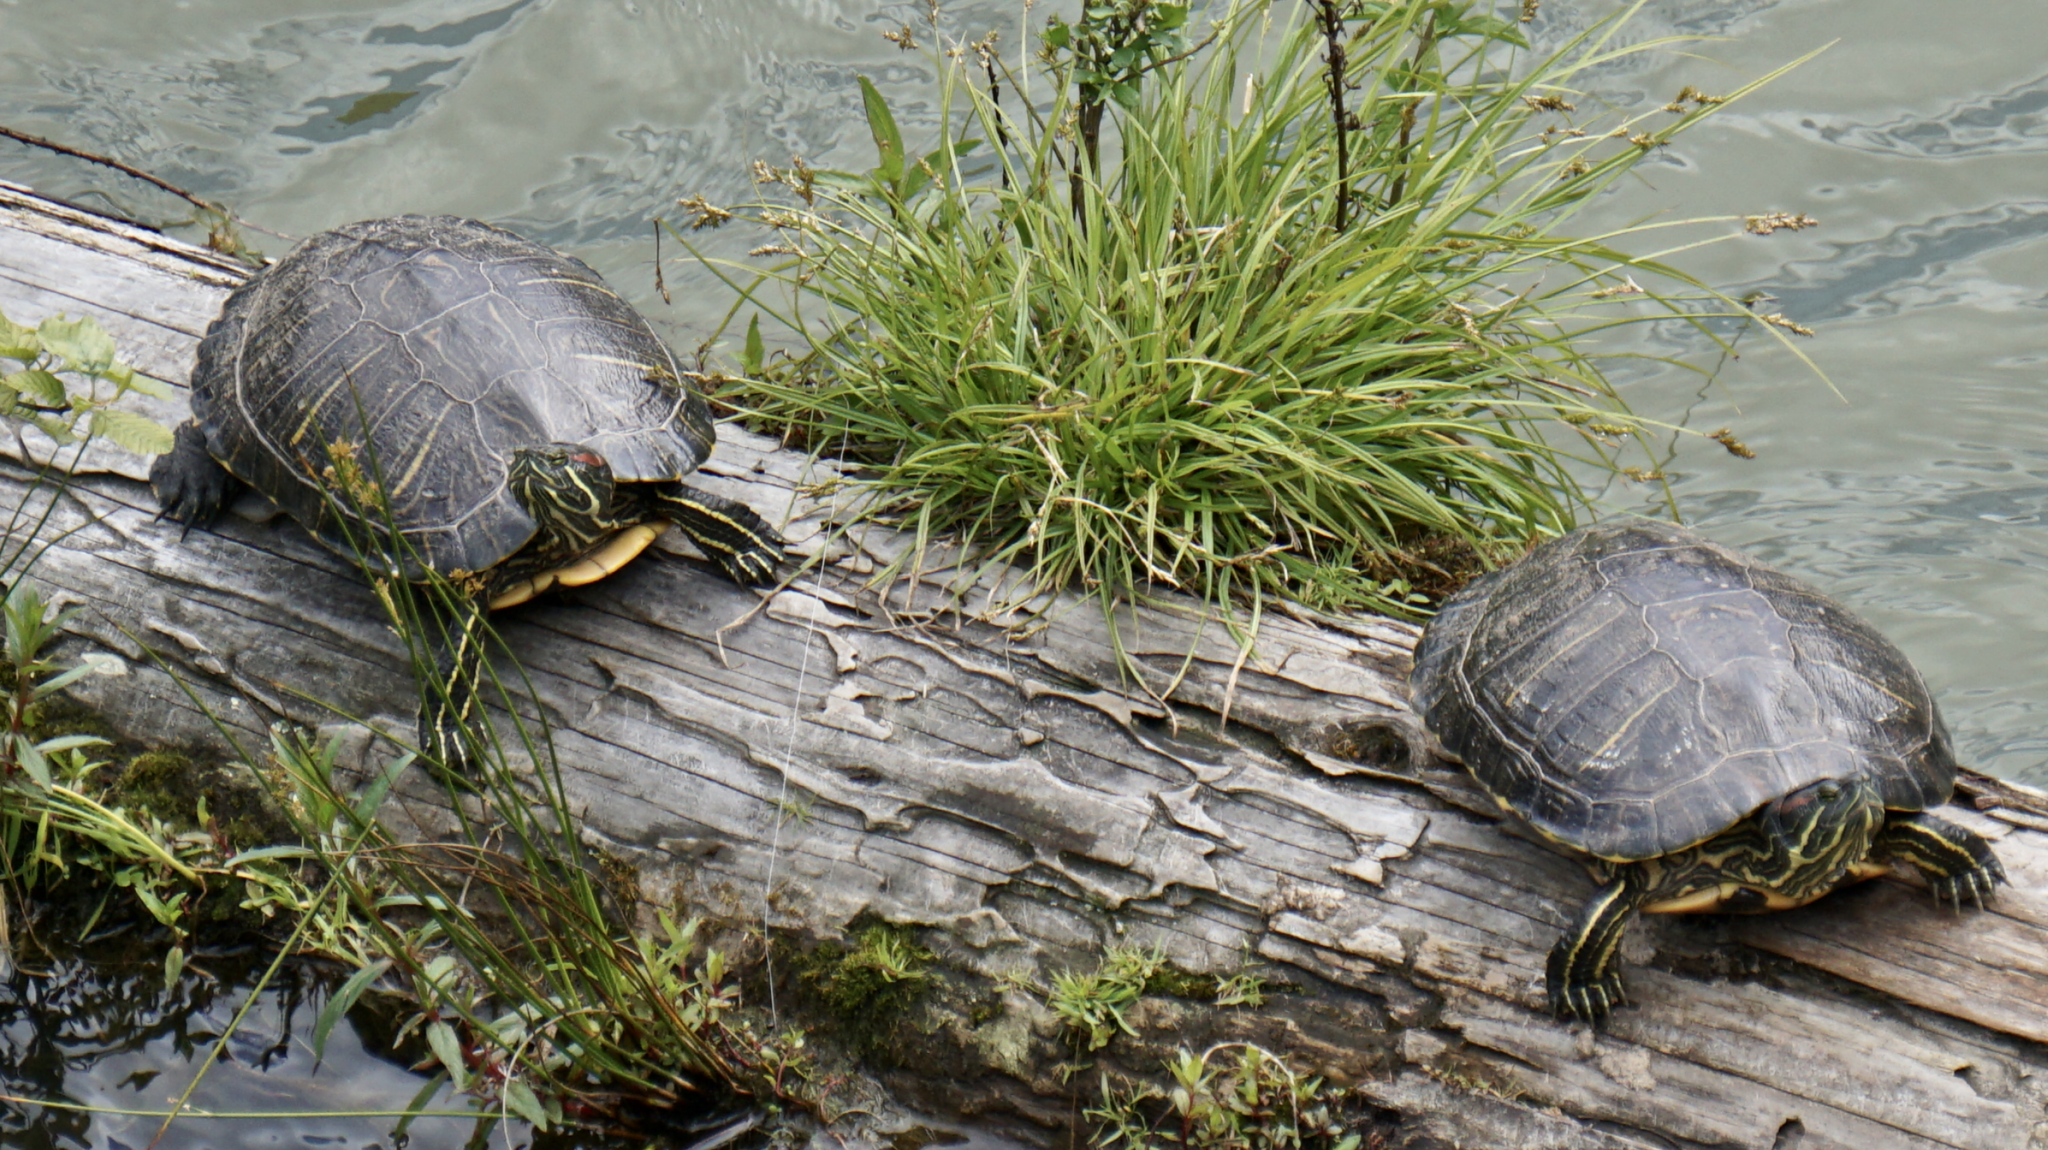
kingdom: Animalia
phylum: Chordata
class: Testudines
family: Emydidae
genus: Trachemys
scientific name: Trachemys scripta
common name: Slider
